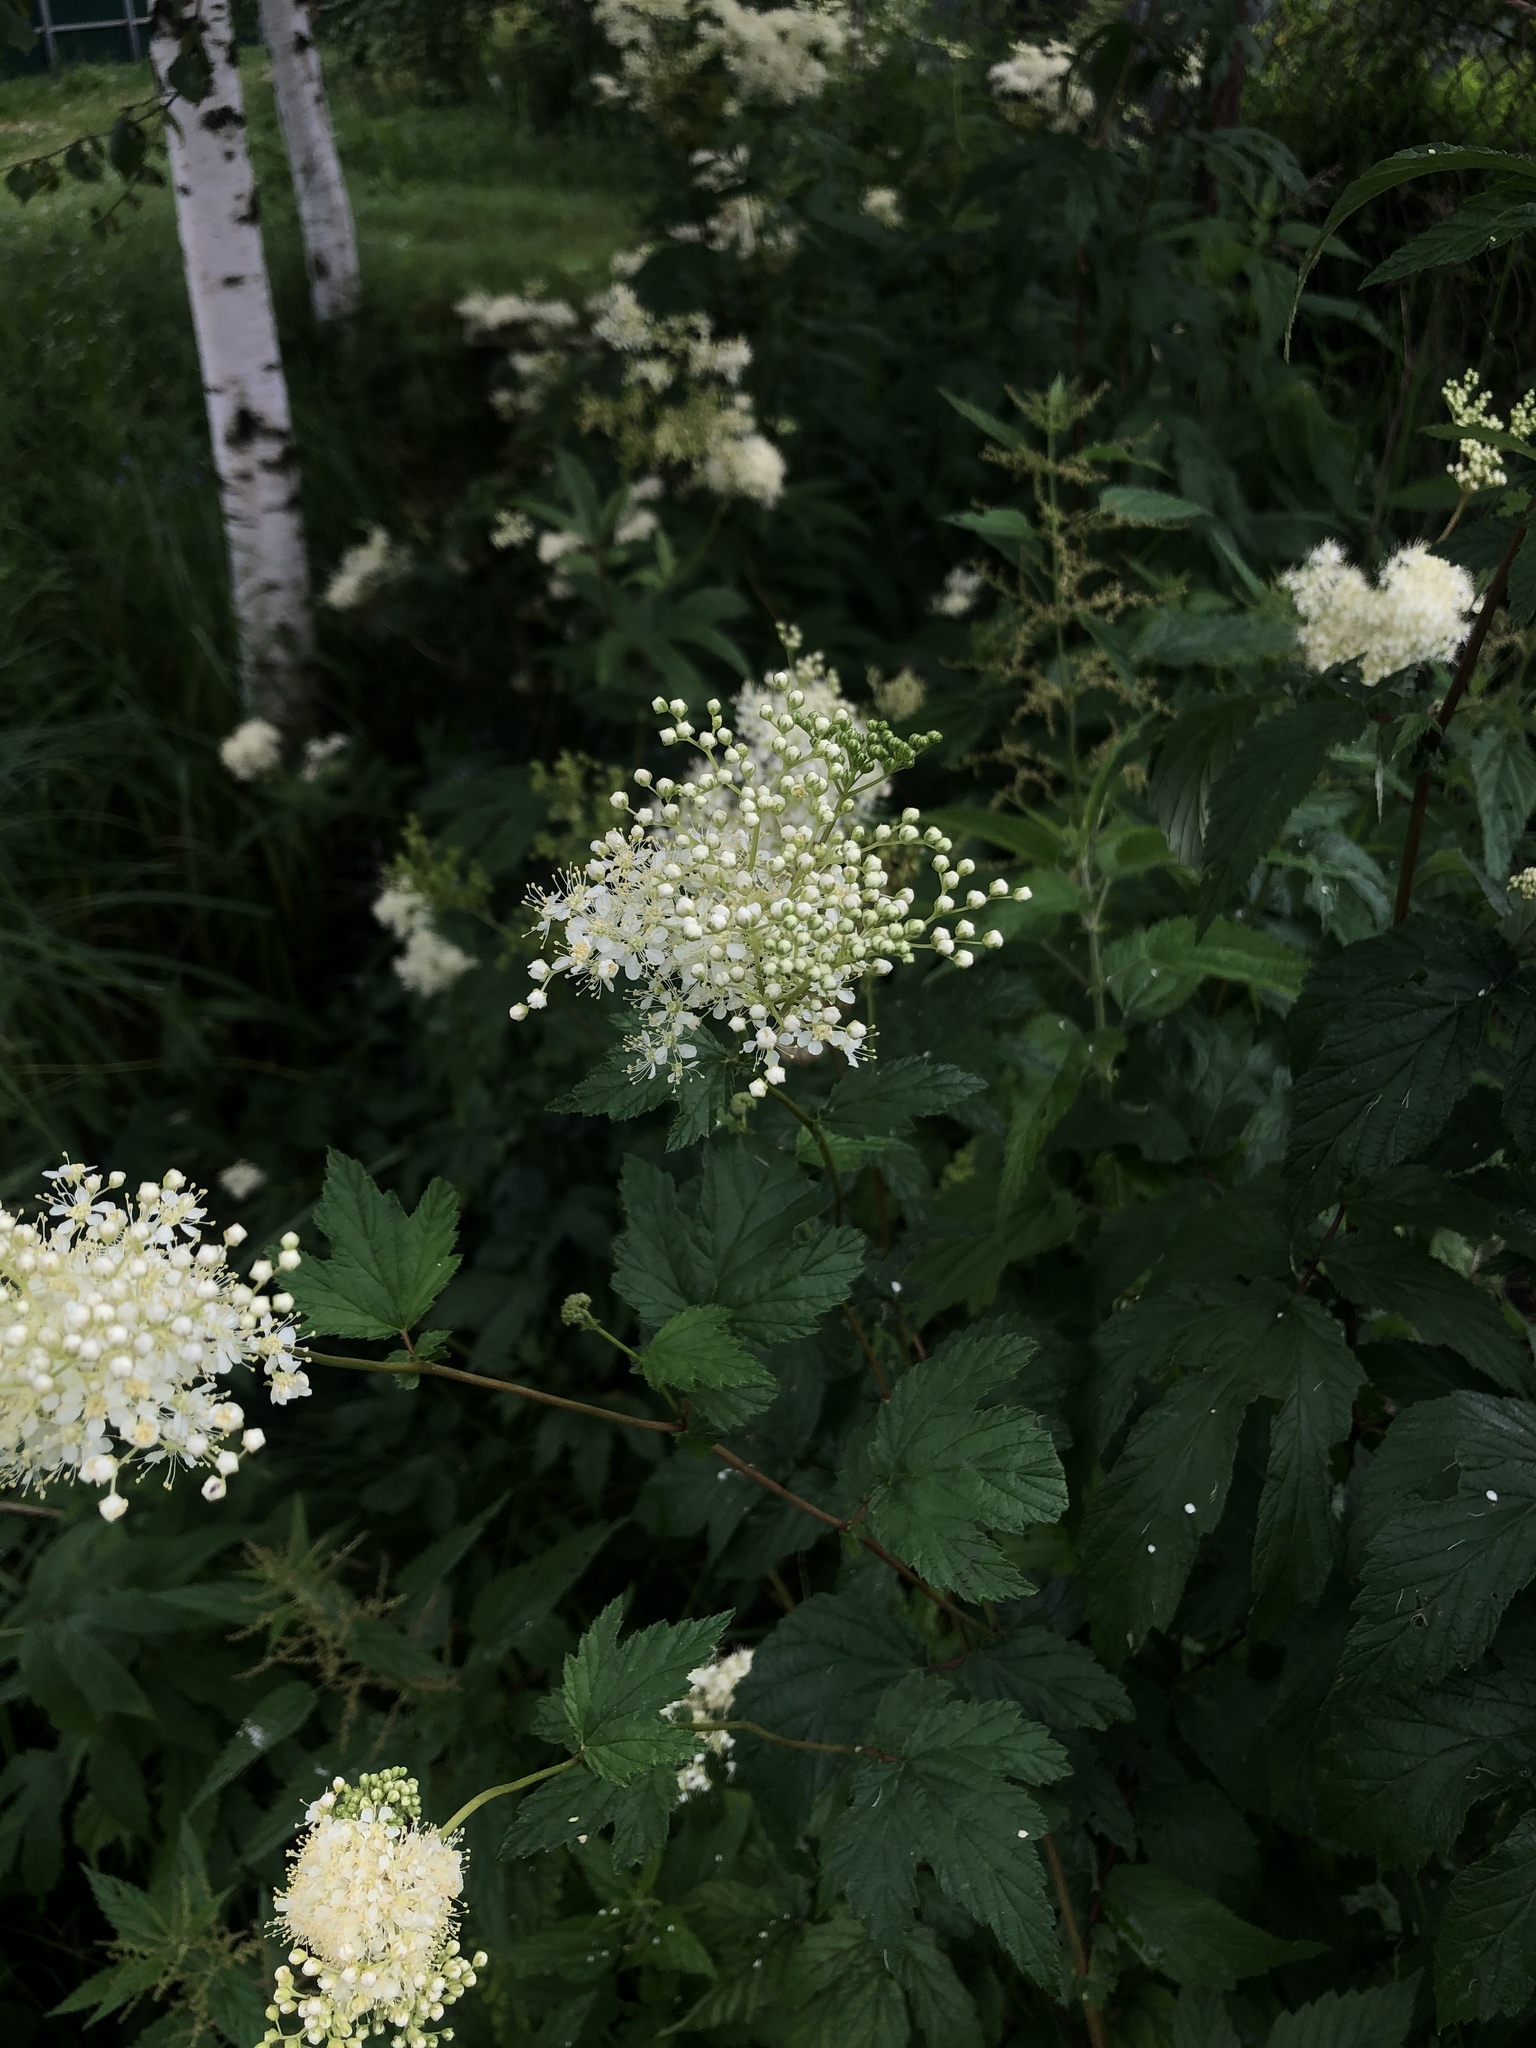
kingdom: Plantae
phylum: Tracheophyta
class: Magnoliopsida
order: Rosales
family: Rosaceae
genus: Filipendula
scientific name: Filipendula ulmaria
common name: Meadowsweet
